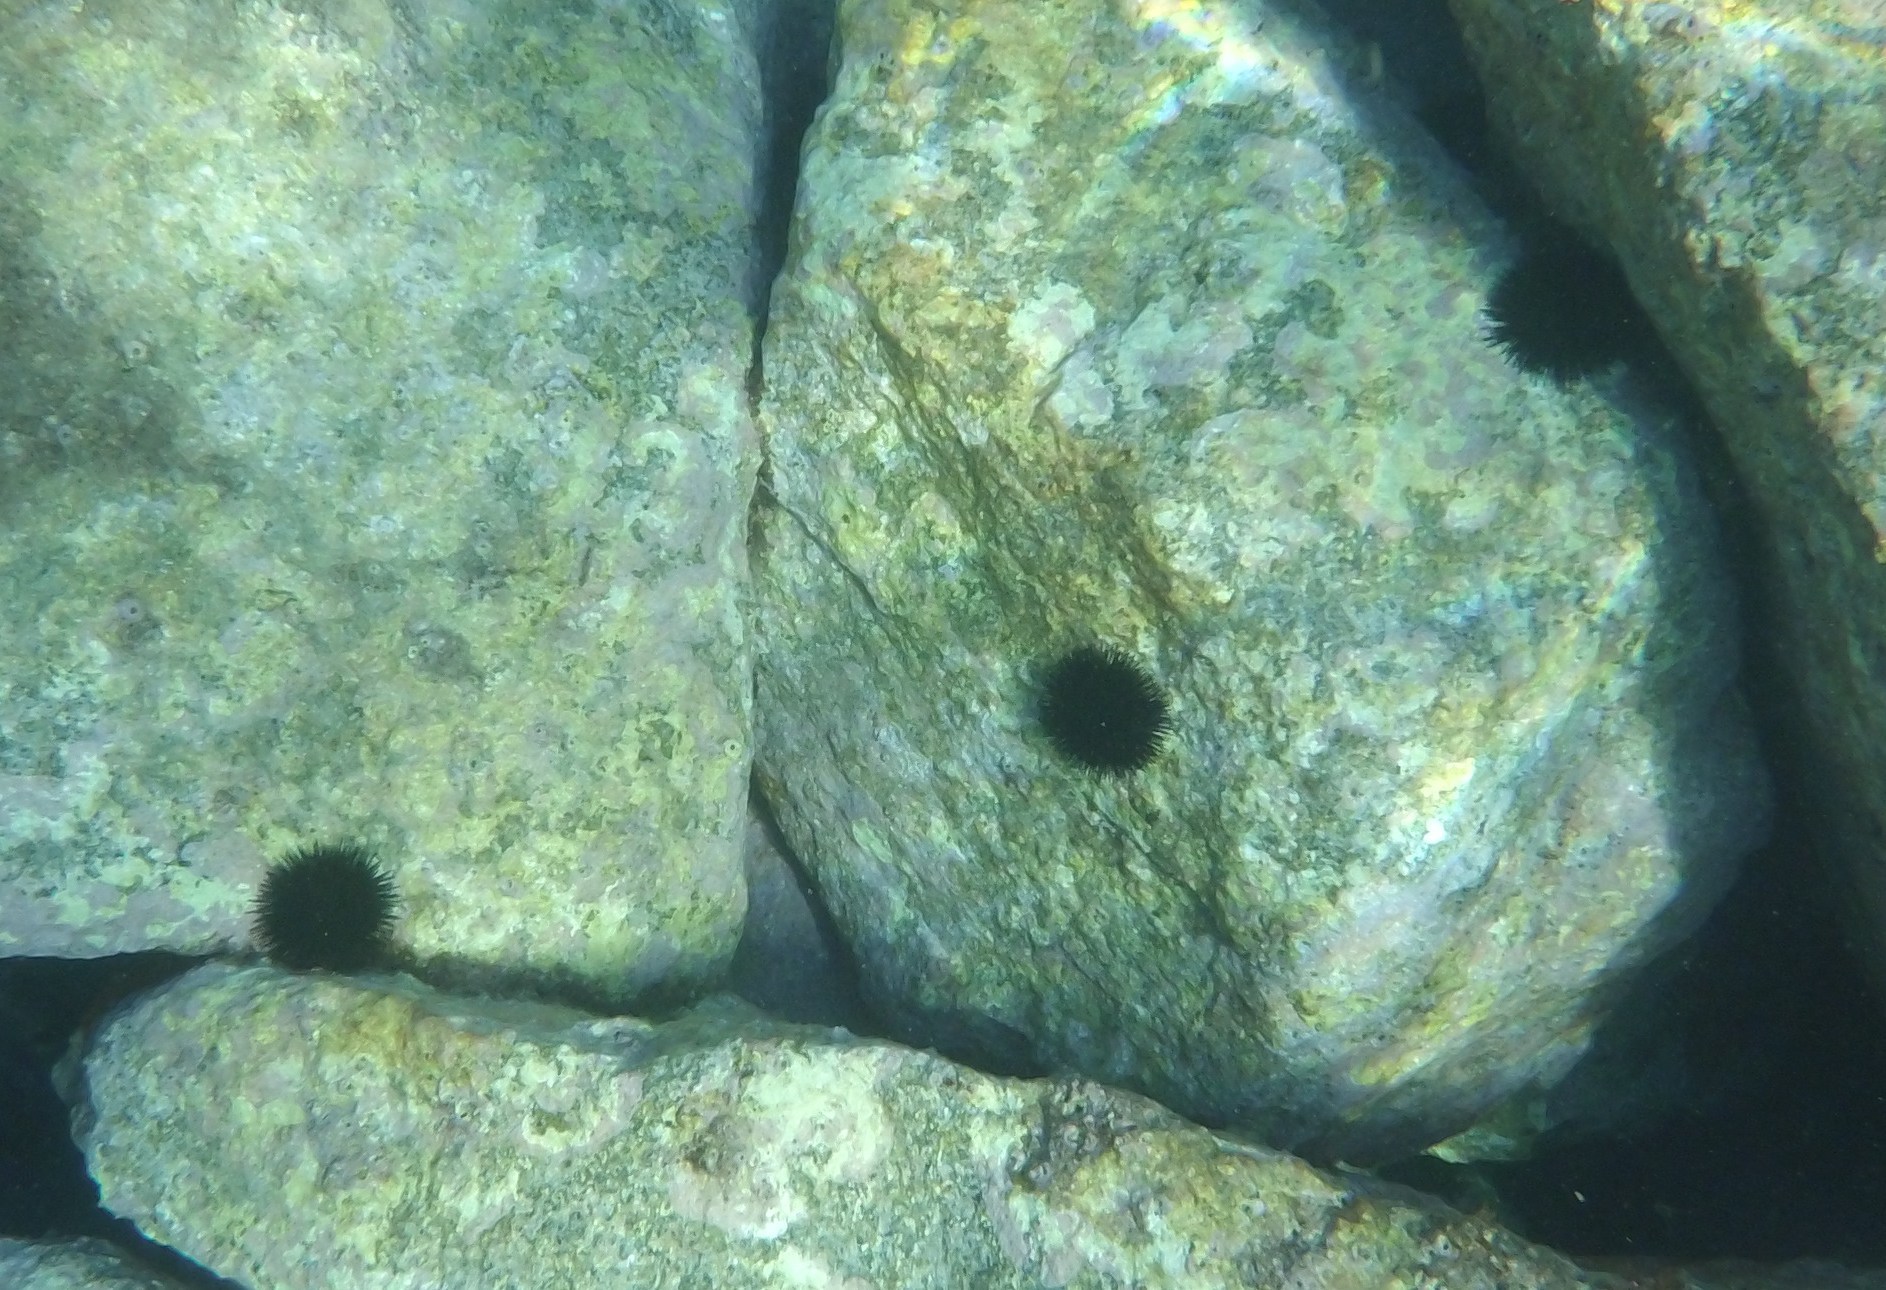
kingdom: Animalia
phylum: Echinodermata
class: Echinoidea
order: Arbacioida
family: Arbaciidae
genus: Arbacia
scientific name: Arbacia lixula
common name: Black sea urchin
